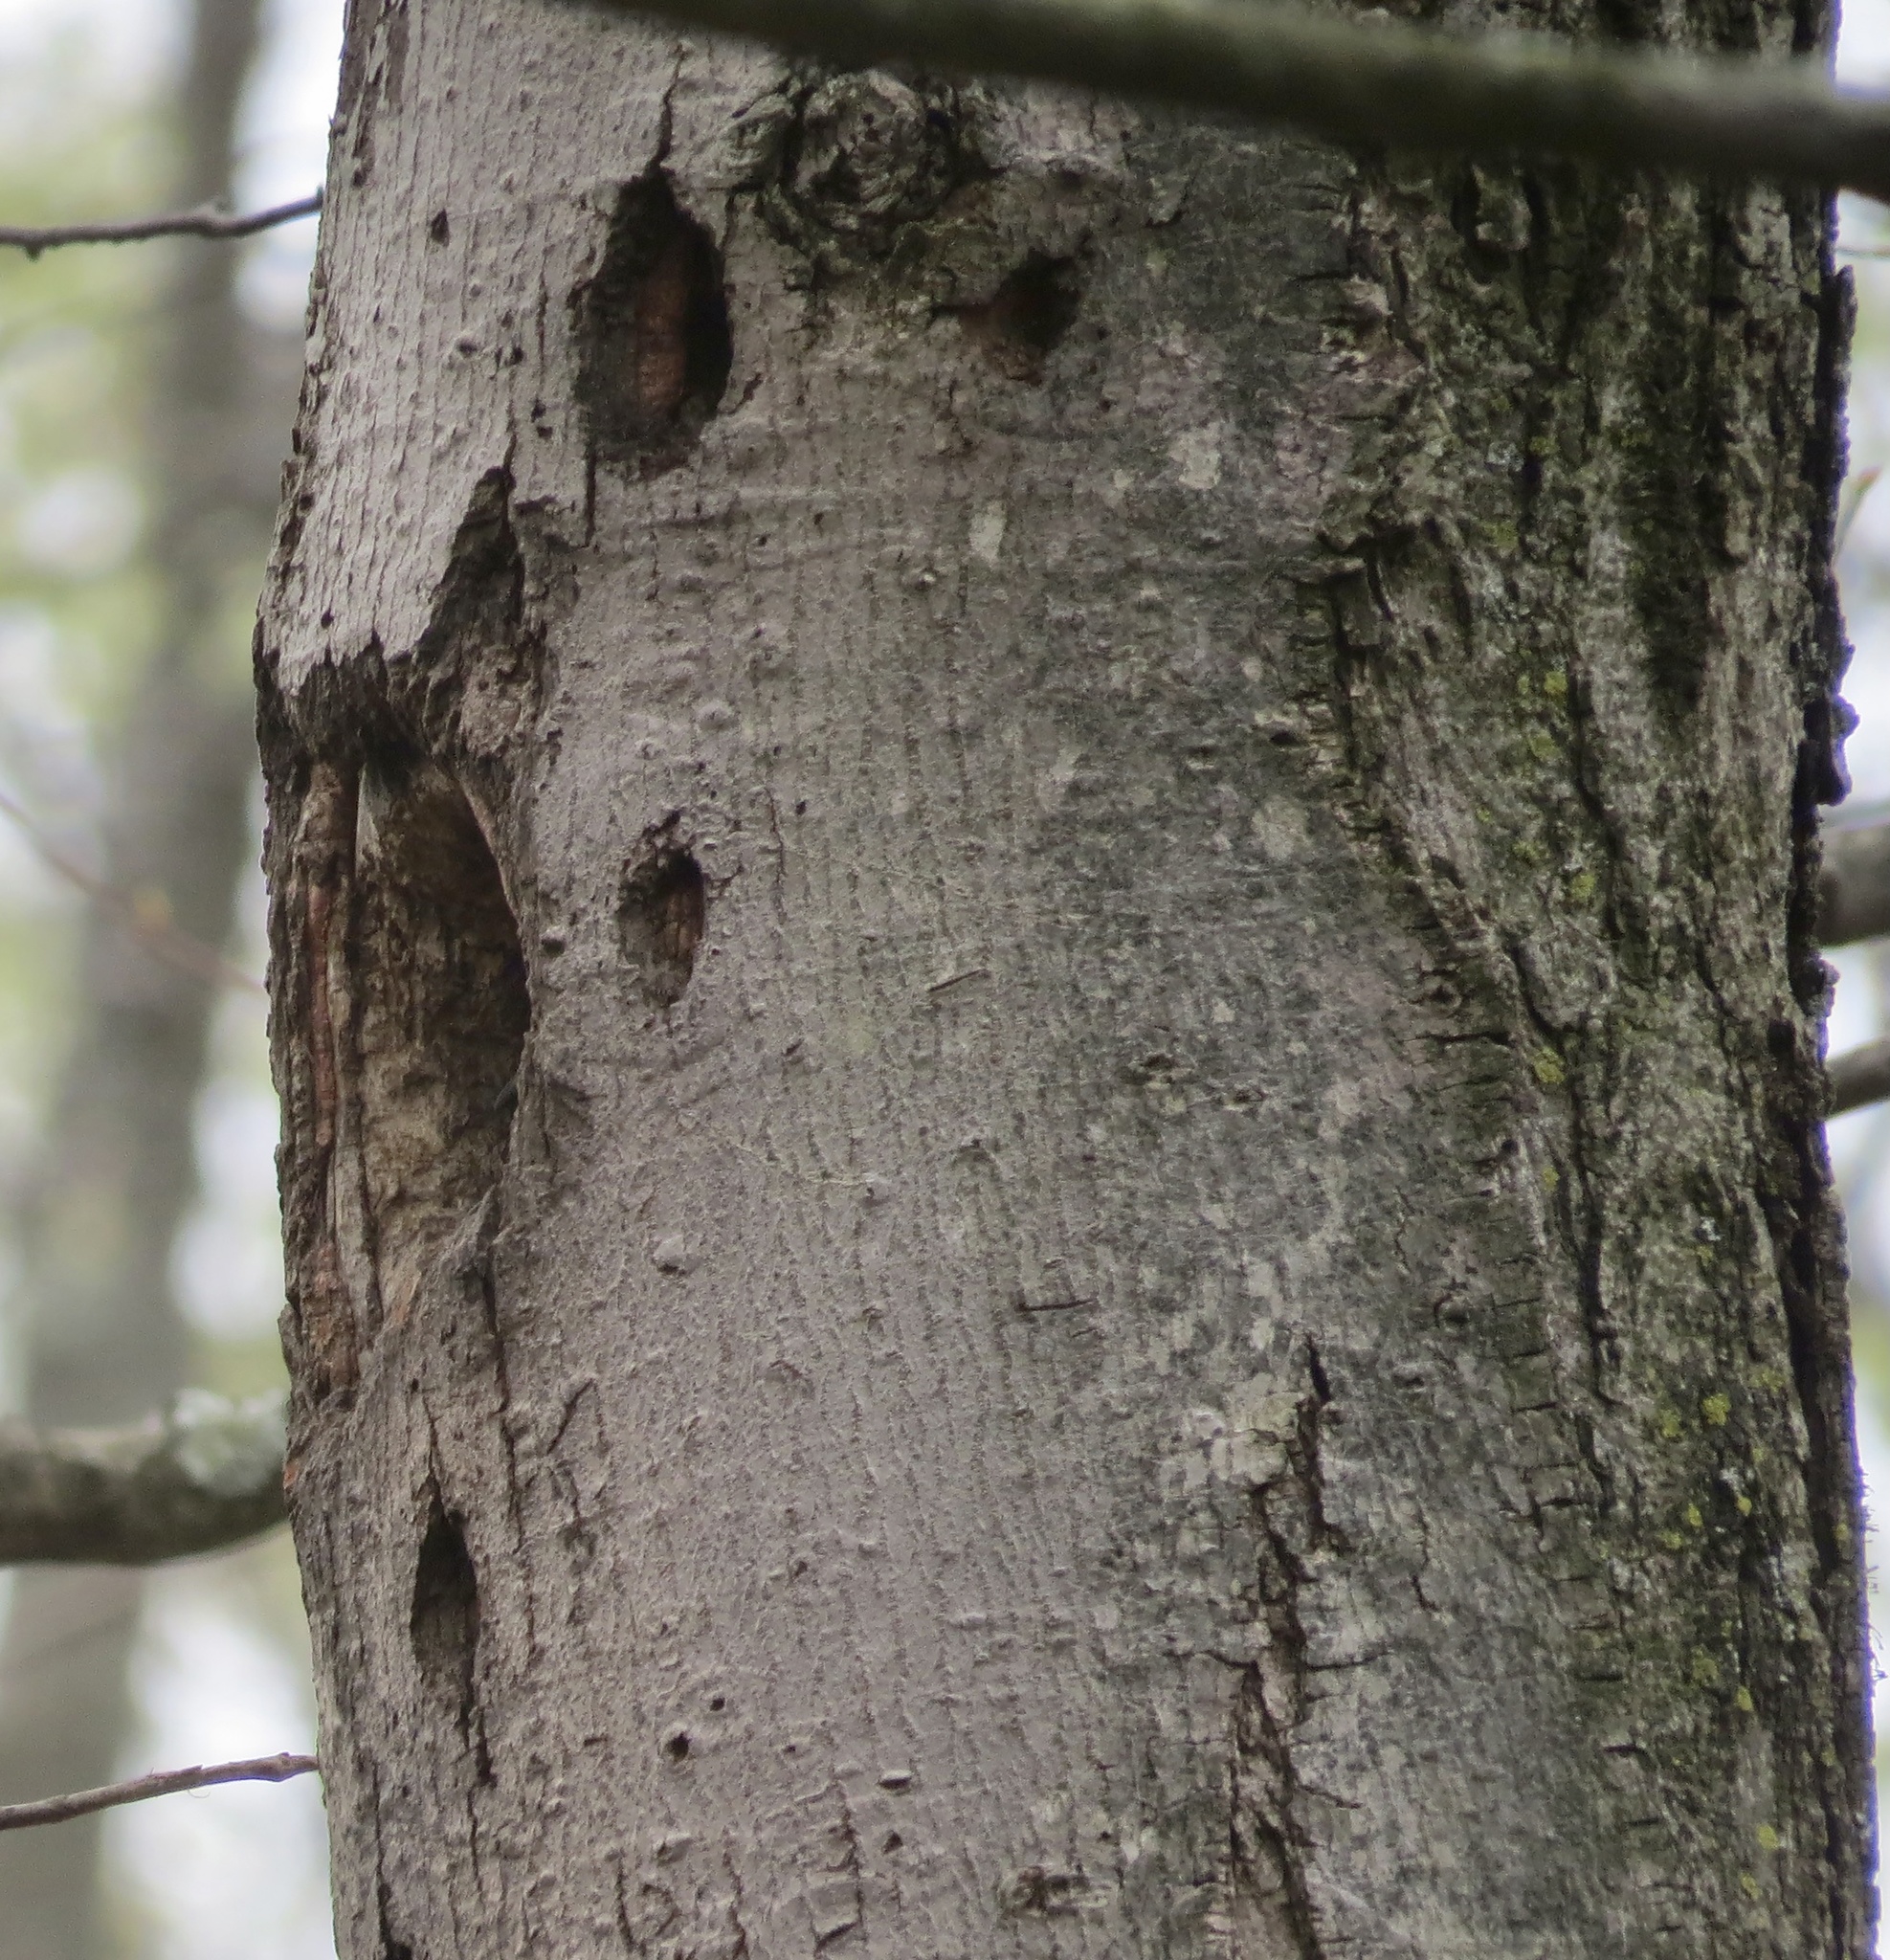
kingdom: Animalia
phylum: Chordata
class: Aves
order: Piciformes
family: Picidae
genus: Colaptes
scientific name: Colaptes auratus
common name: Northern flicker
